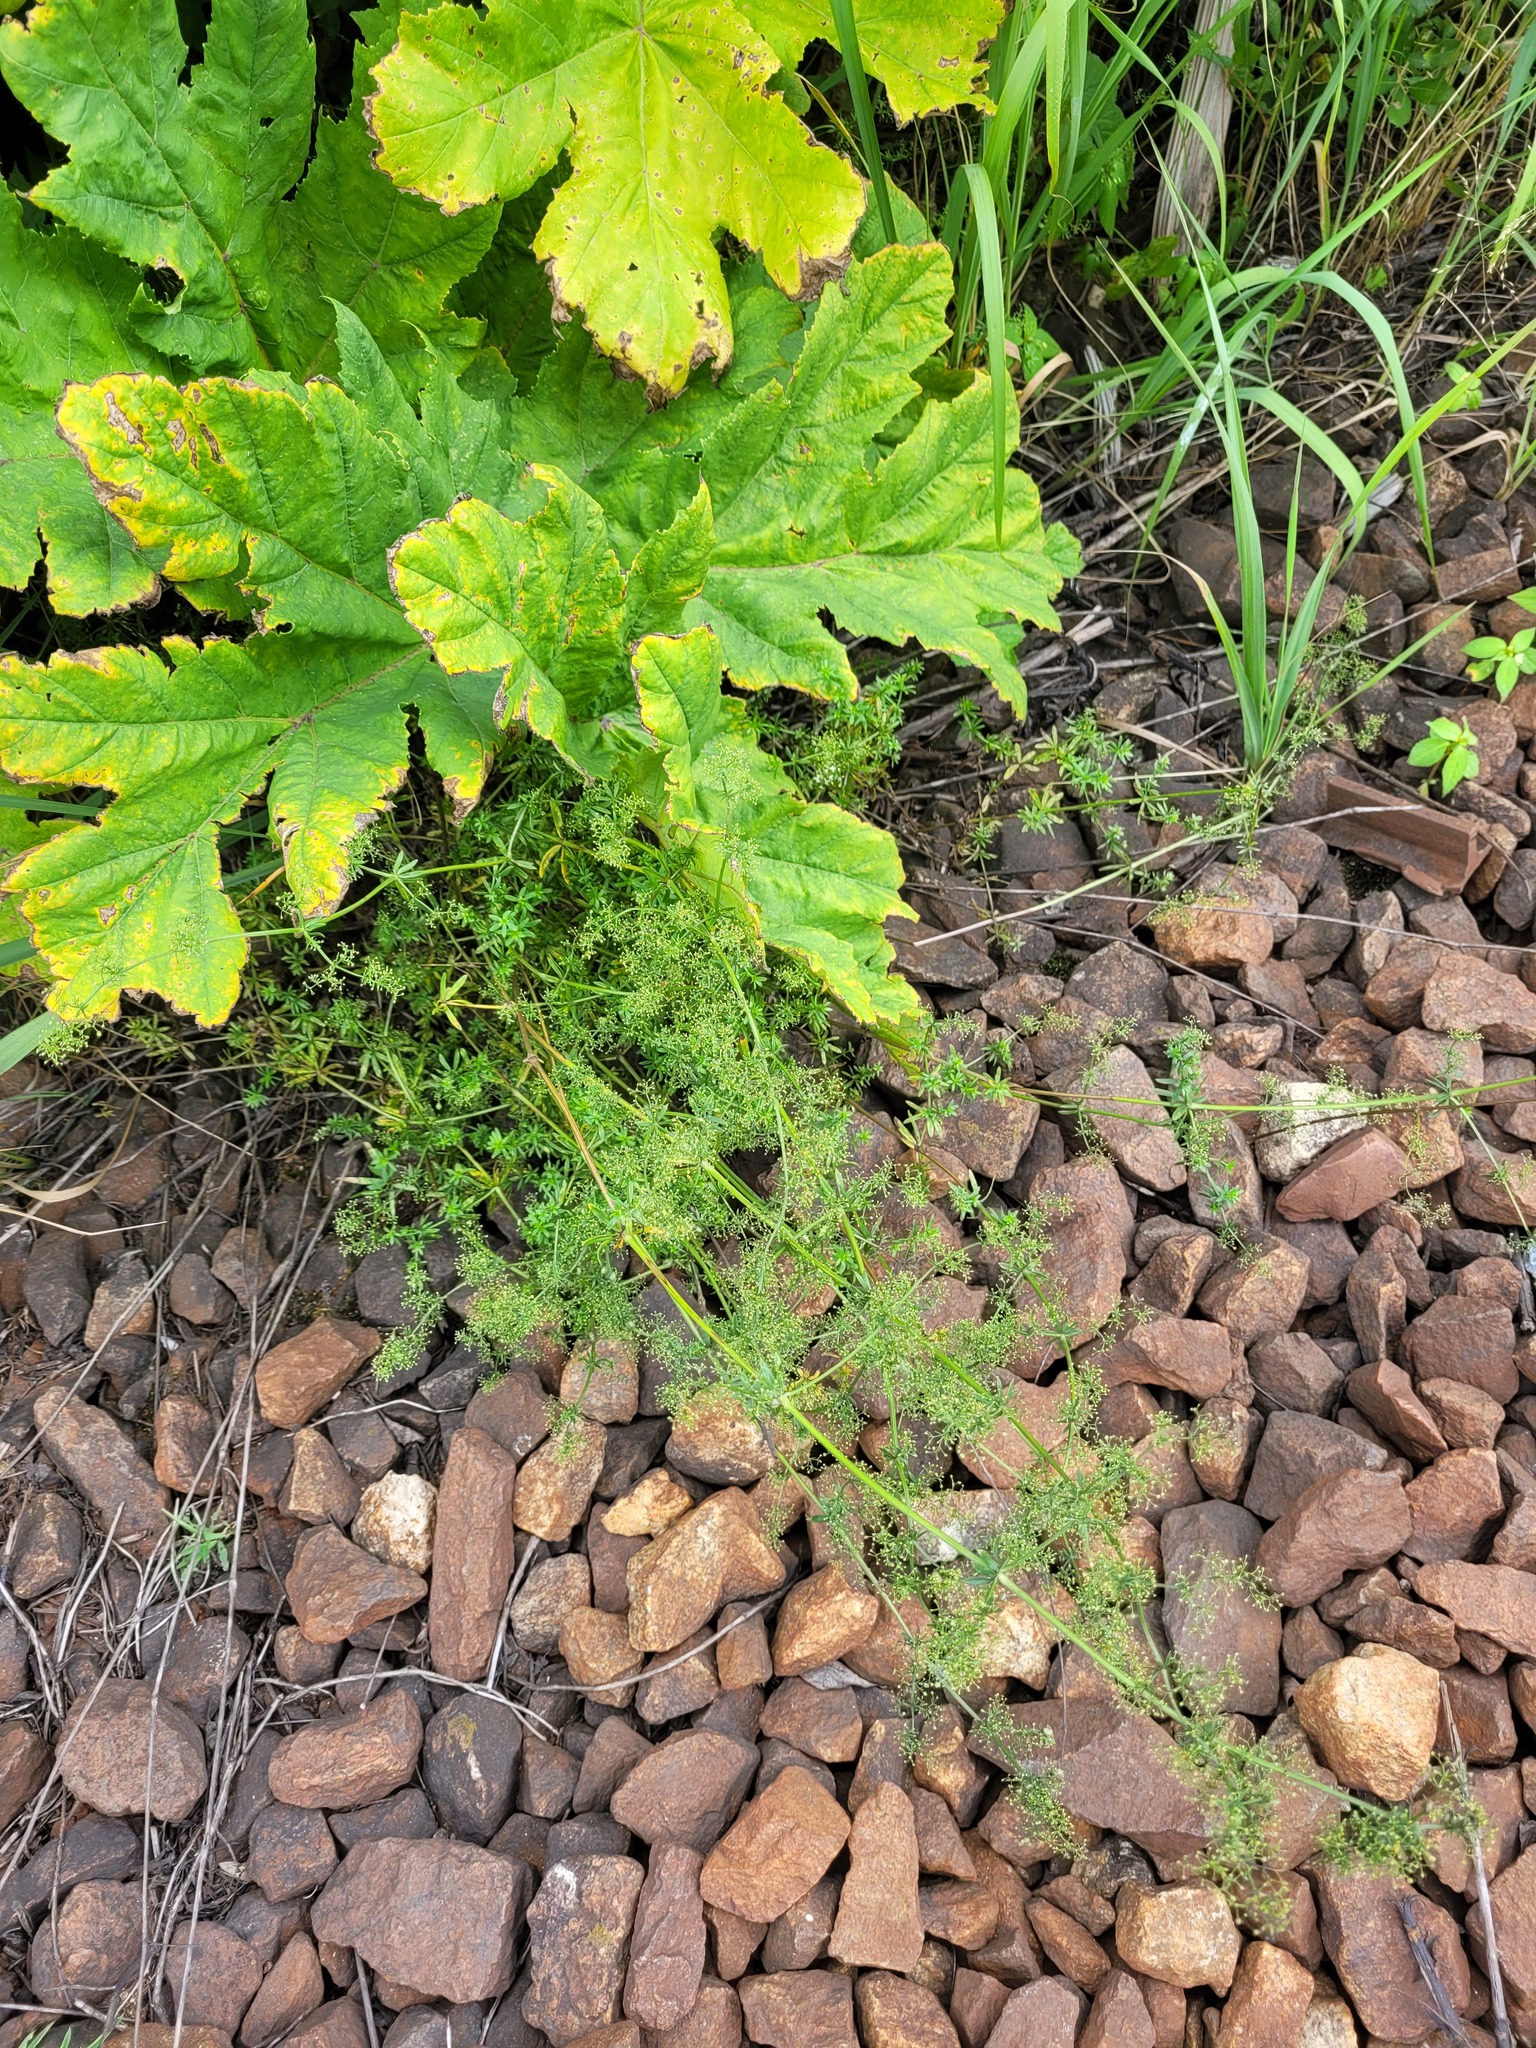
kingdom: Plantae
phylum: Tracheophyta
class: Magnoliopsida
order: Gentianales
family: Rubiaceae
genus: Galium
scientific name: Galium mollugo
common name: Hedge bedstraw
